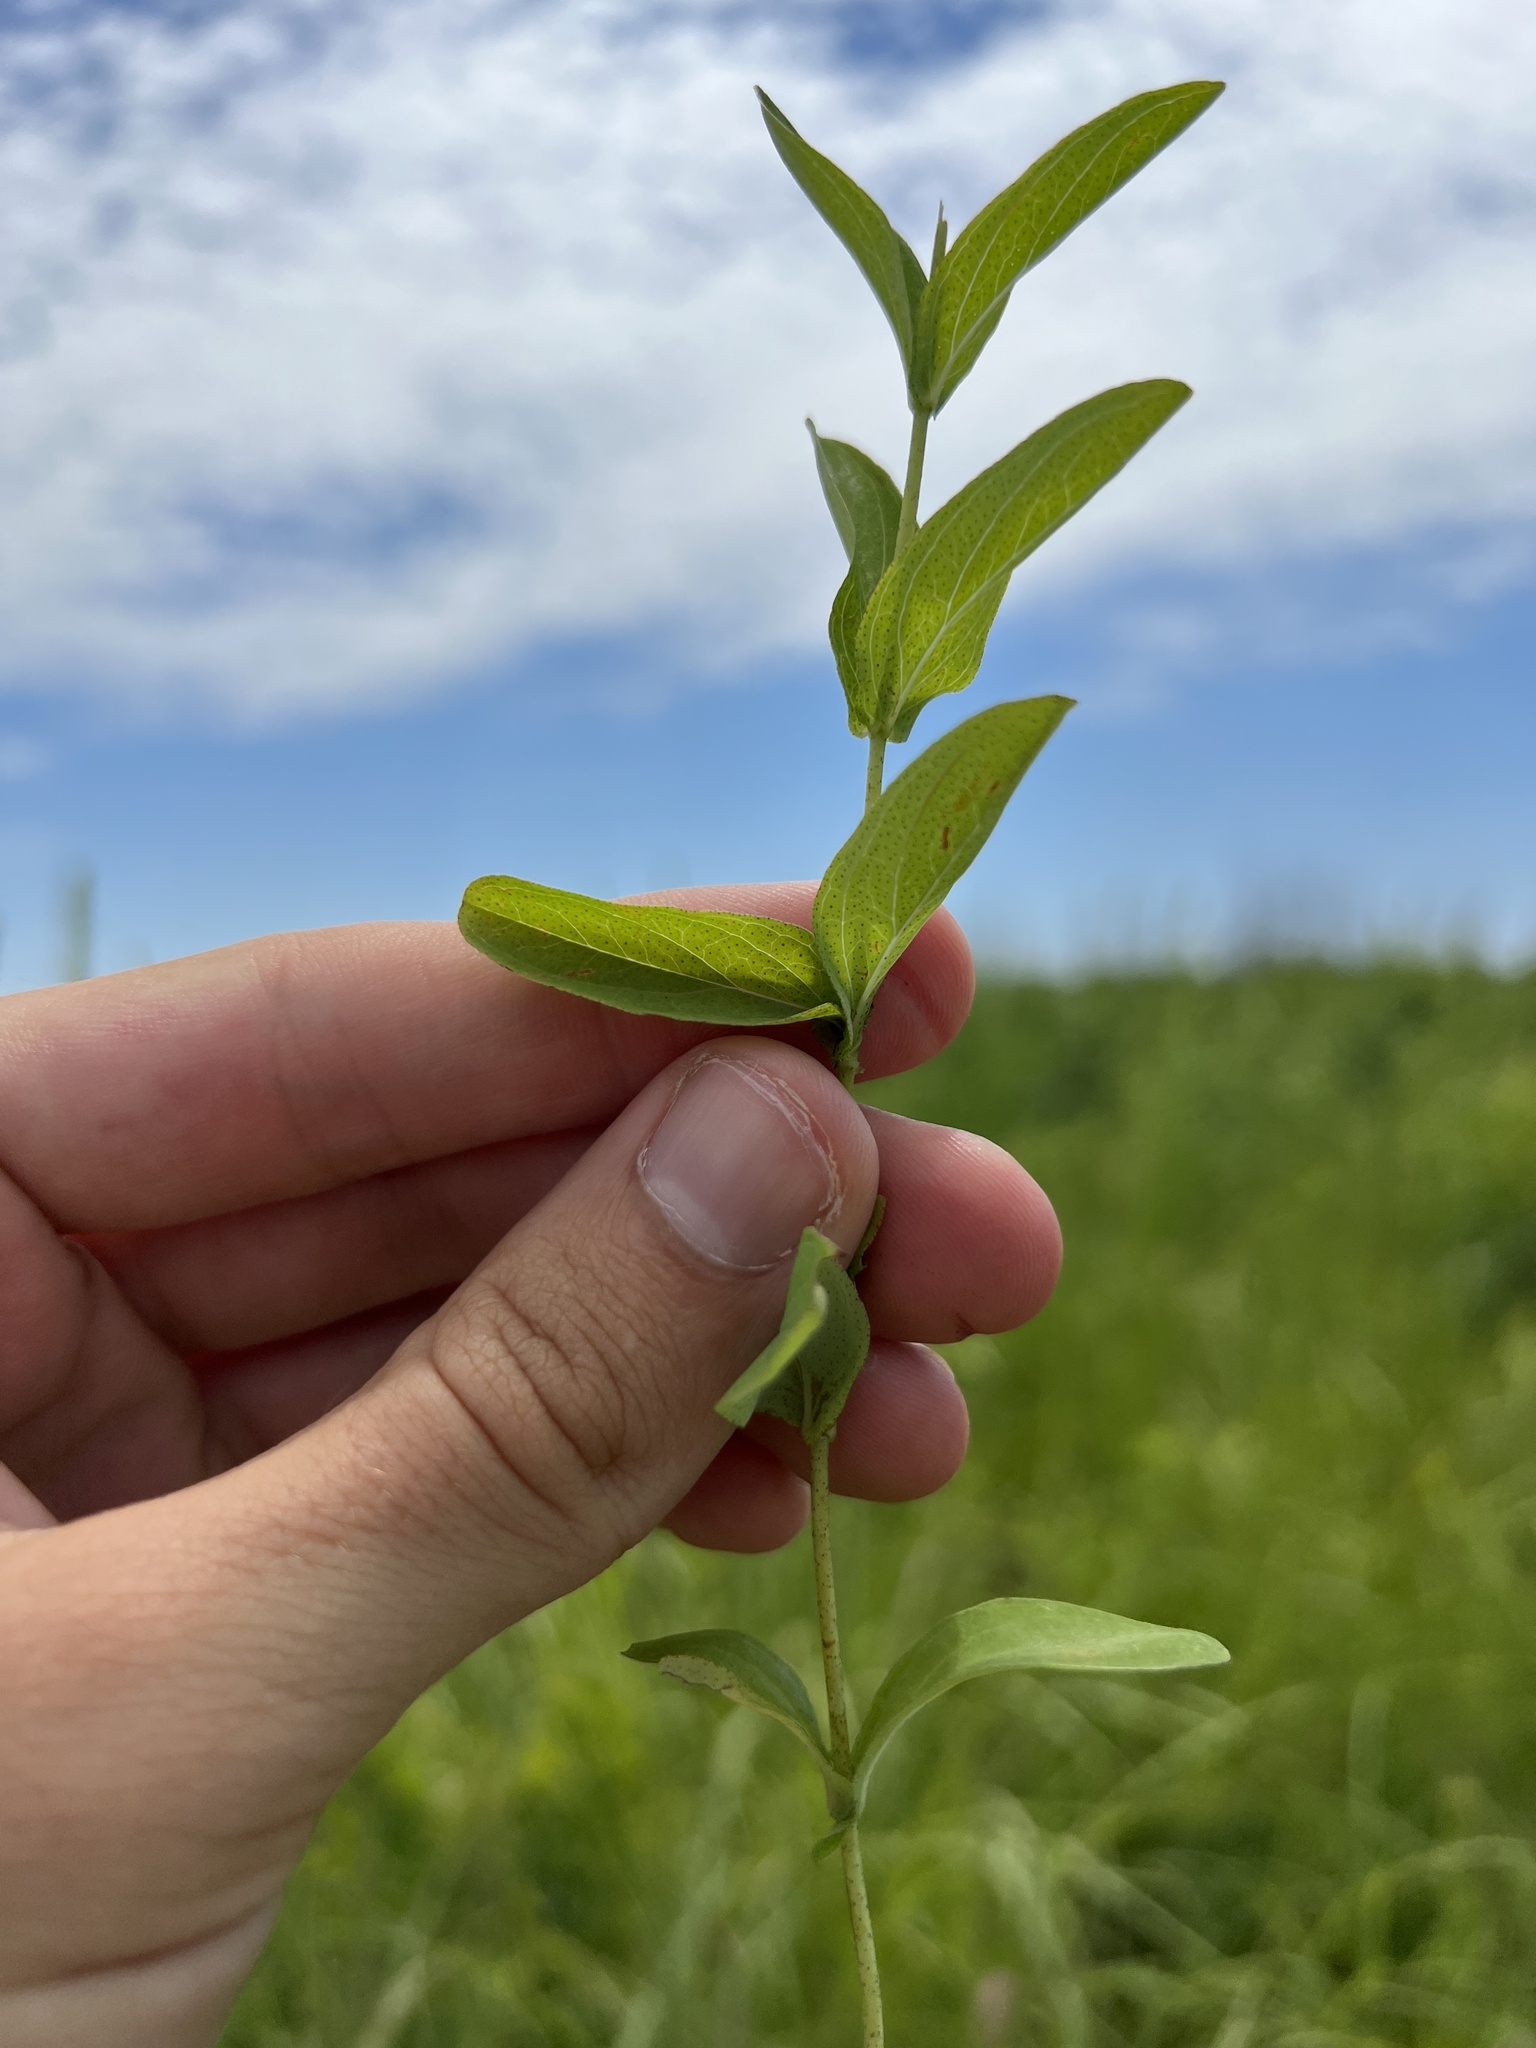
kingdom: Plantae
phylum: Tracheophyta
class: Magnoliopsida
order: Malpighiales
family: Hypericaceae
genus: Hypericum
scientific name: Hypericum punctatum
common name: Spotted st. john's-wort
